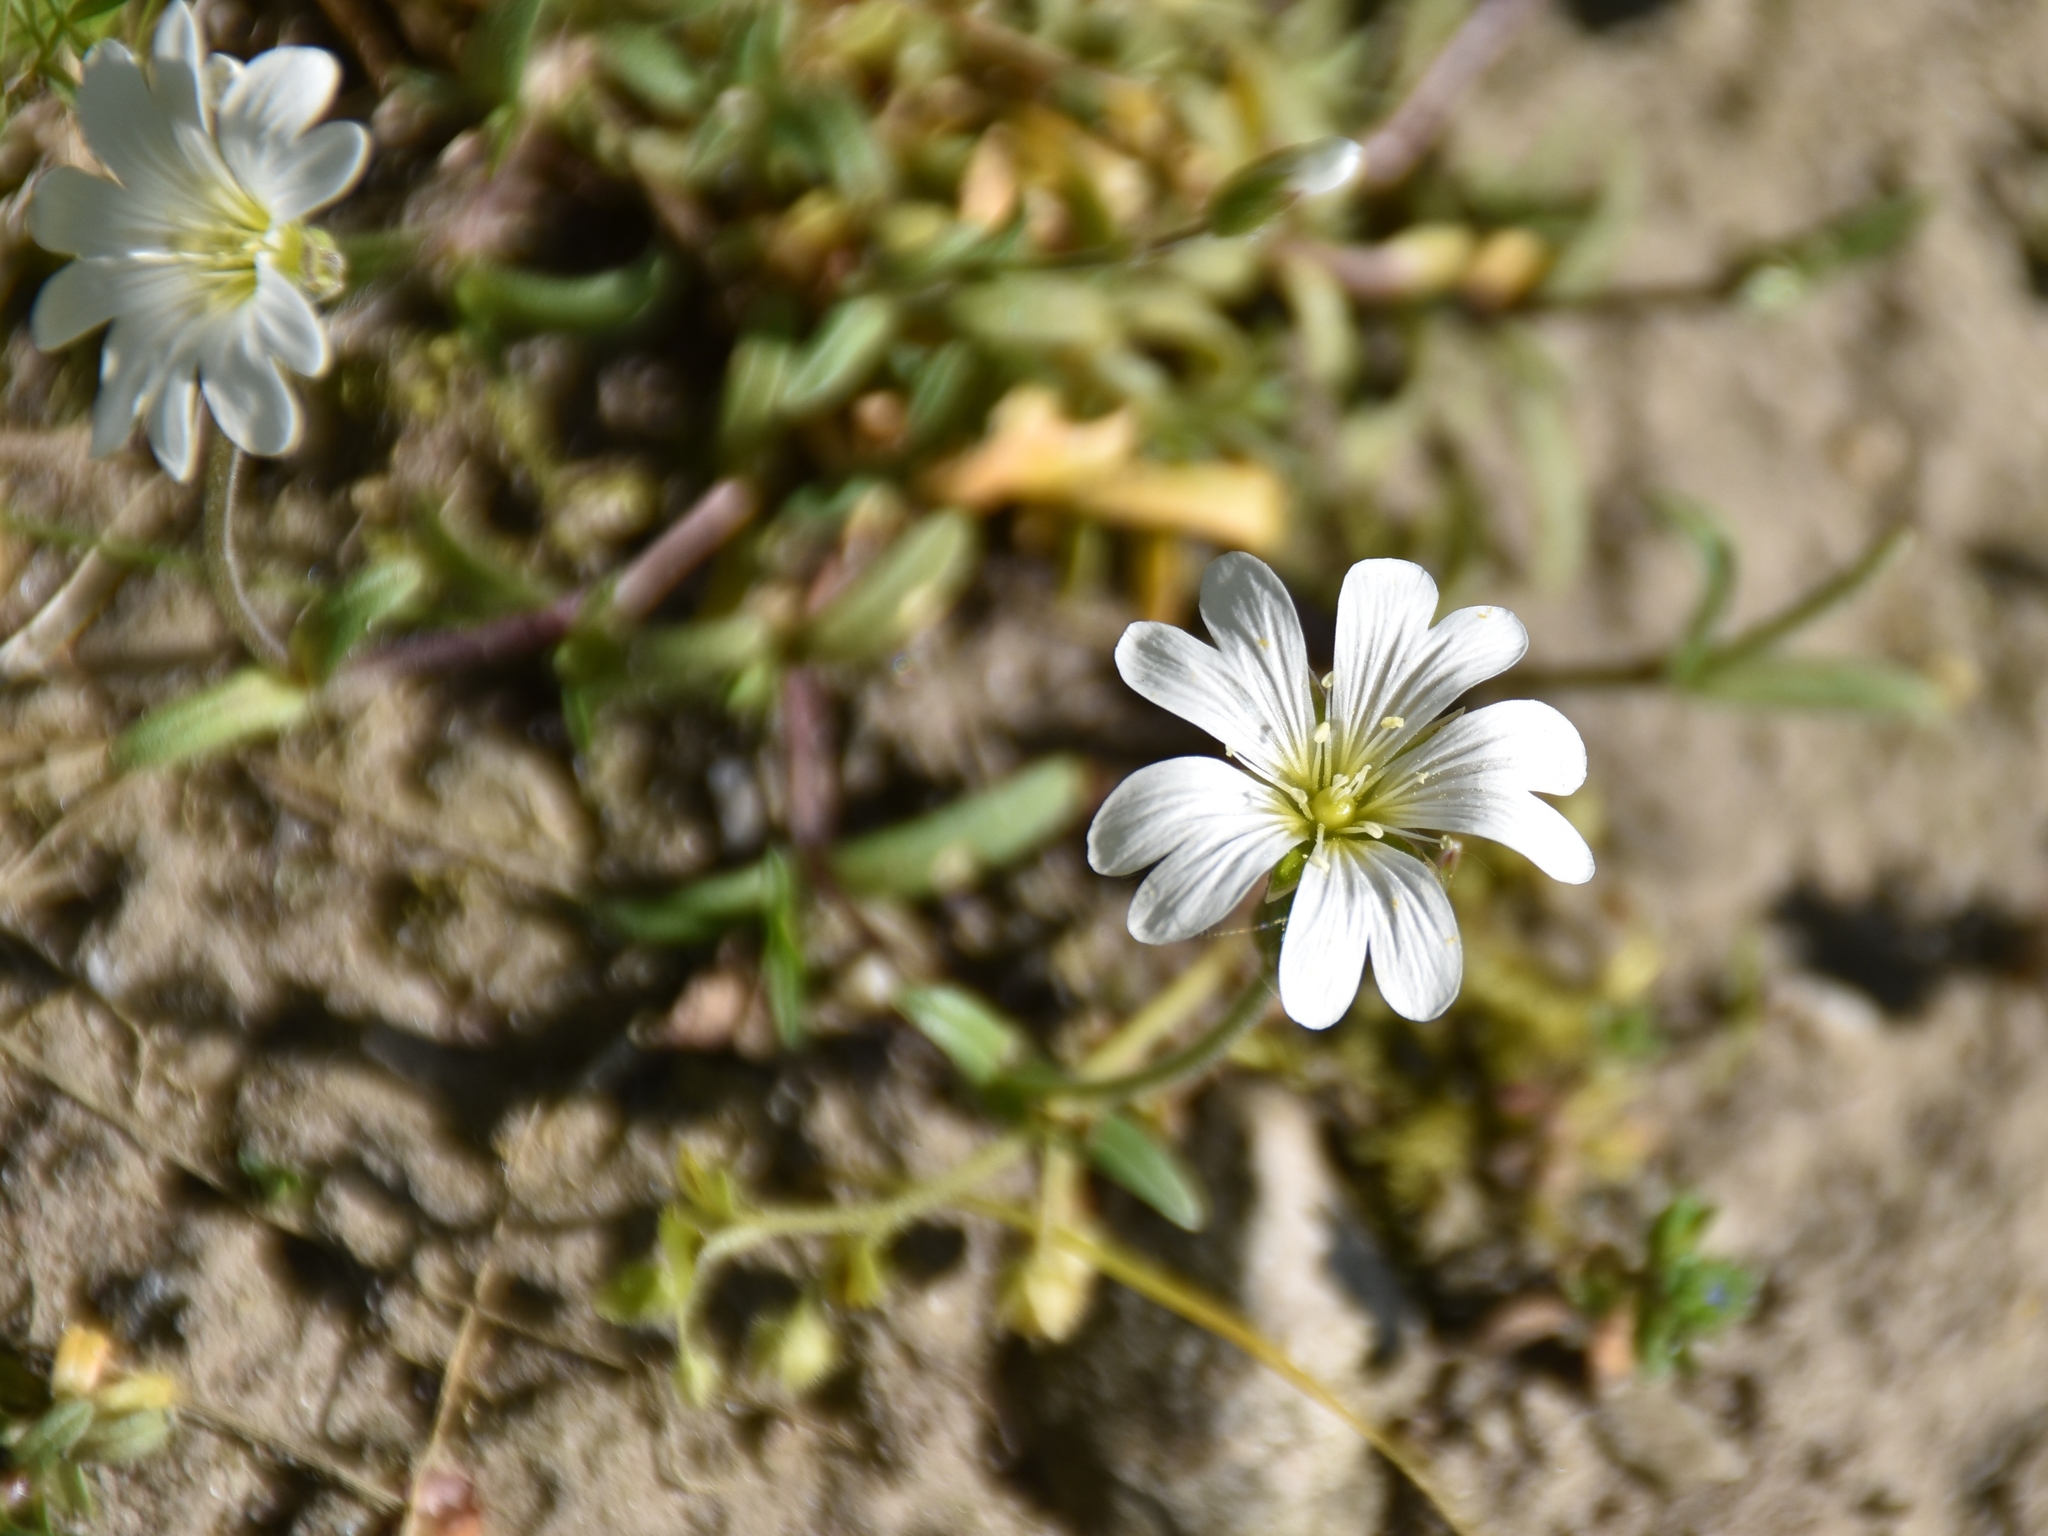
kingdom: Plantae
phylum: Tracheophyta
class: Magnoliopsida
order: Caryophyllales
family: Caryophyllaceae
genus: Cerastium
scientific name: Cerastium arvense
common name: Field mouse-ear
